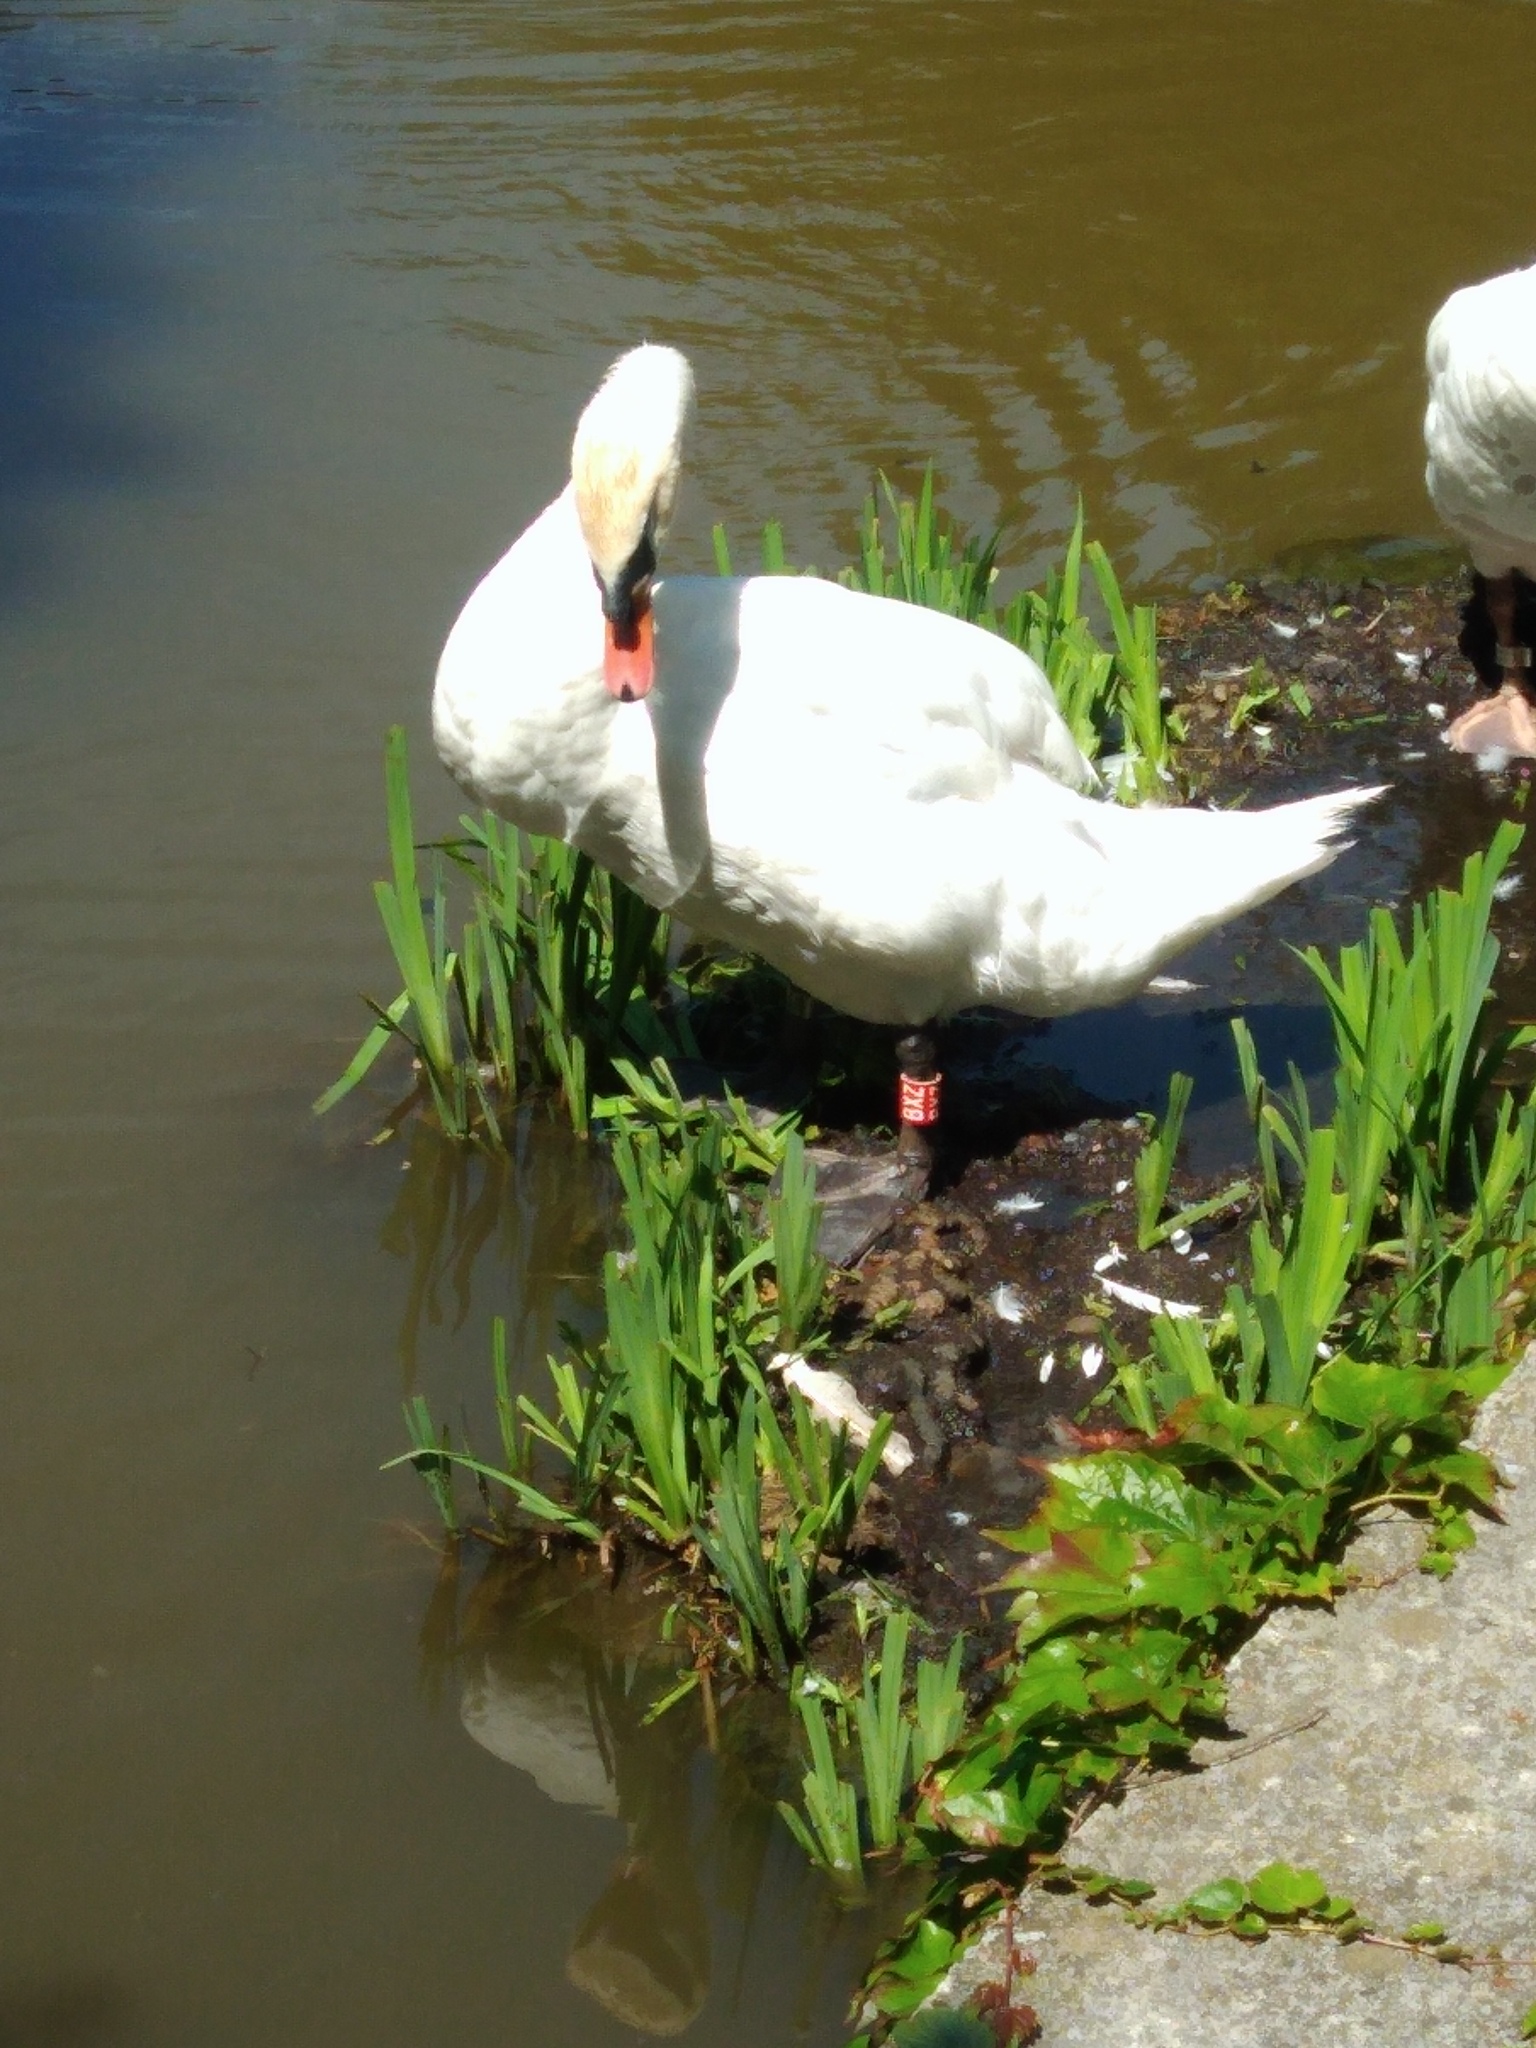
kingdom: Animalia
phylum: Chordata
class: Aves
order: Anseriformes
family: Anatidae
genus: Cygnus
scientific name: Cygnus olor
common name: Mute swan
